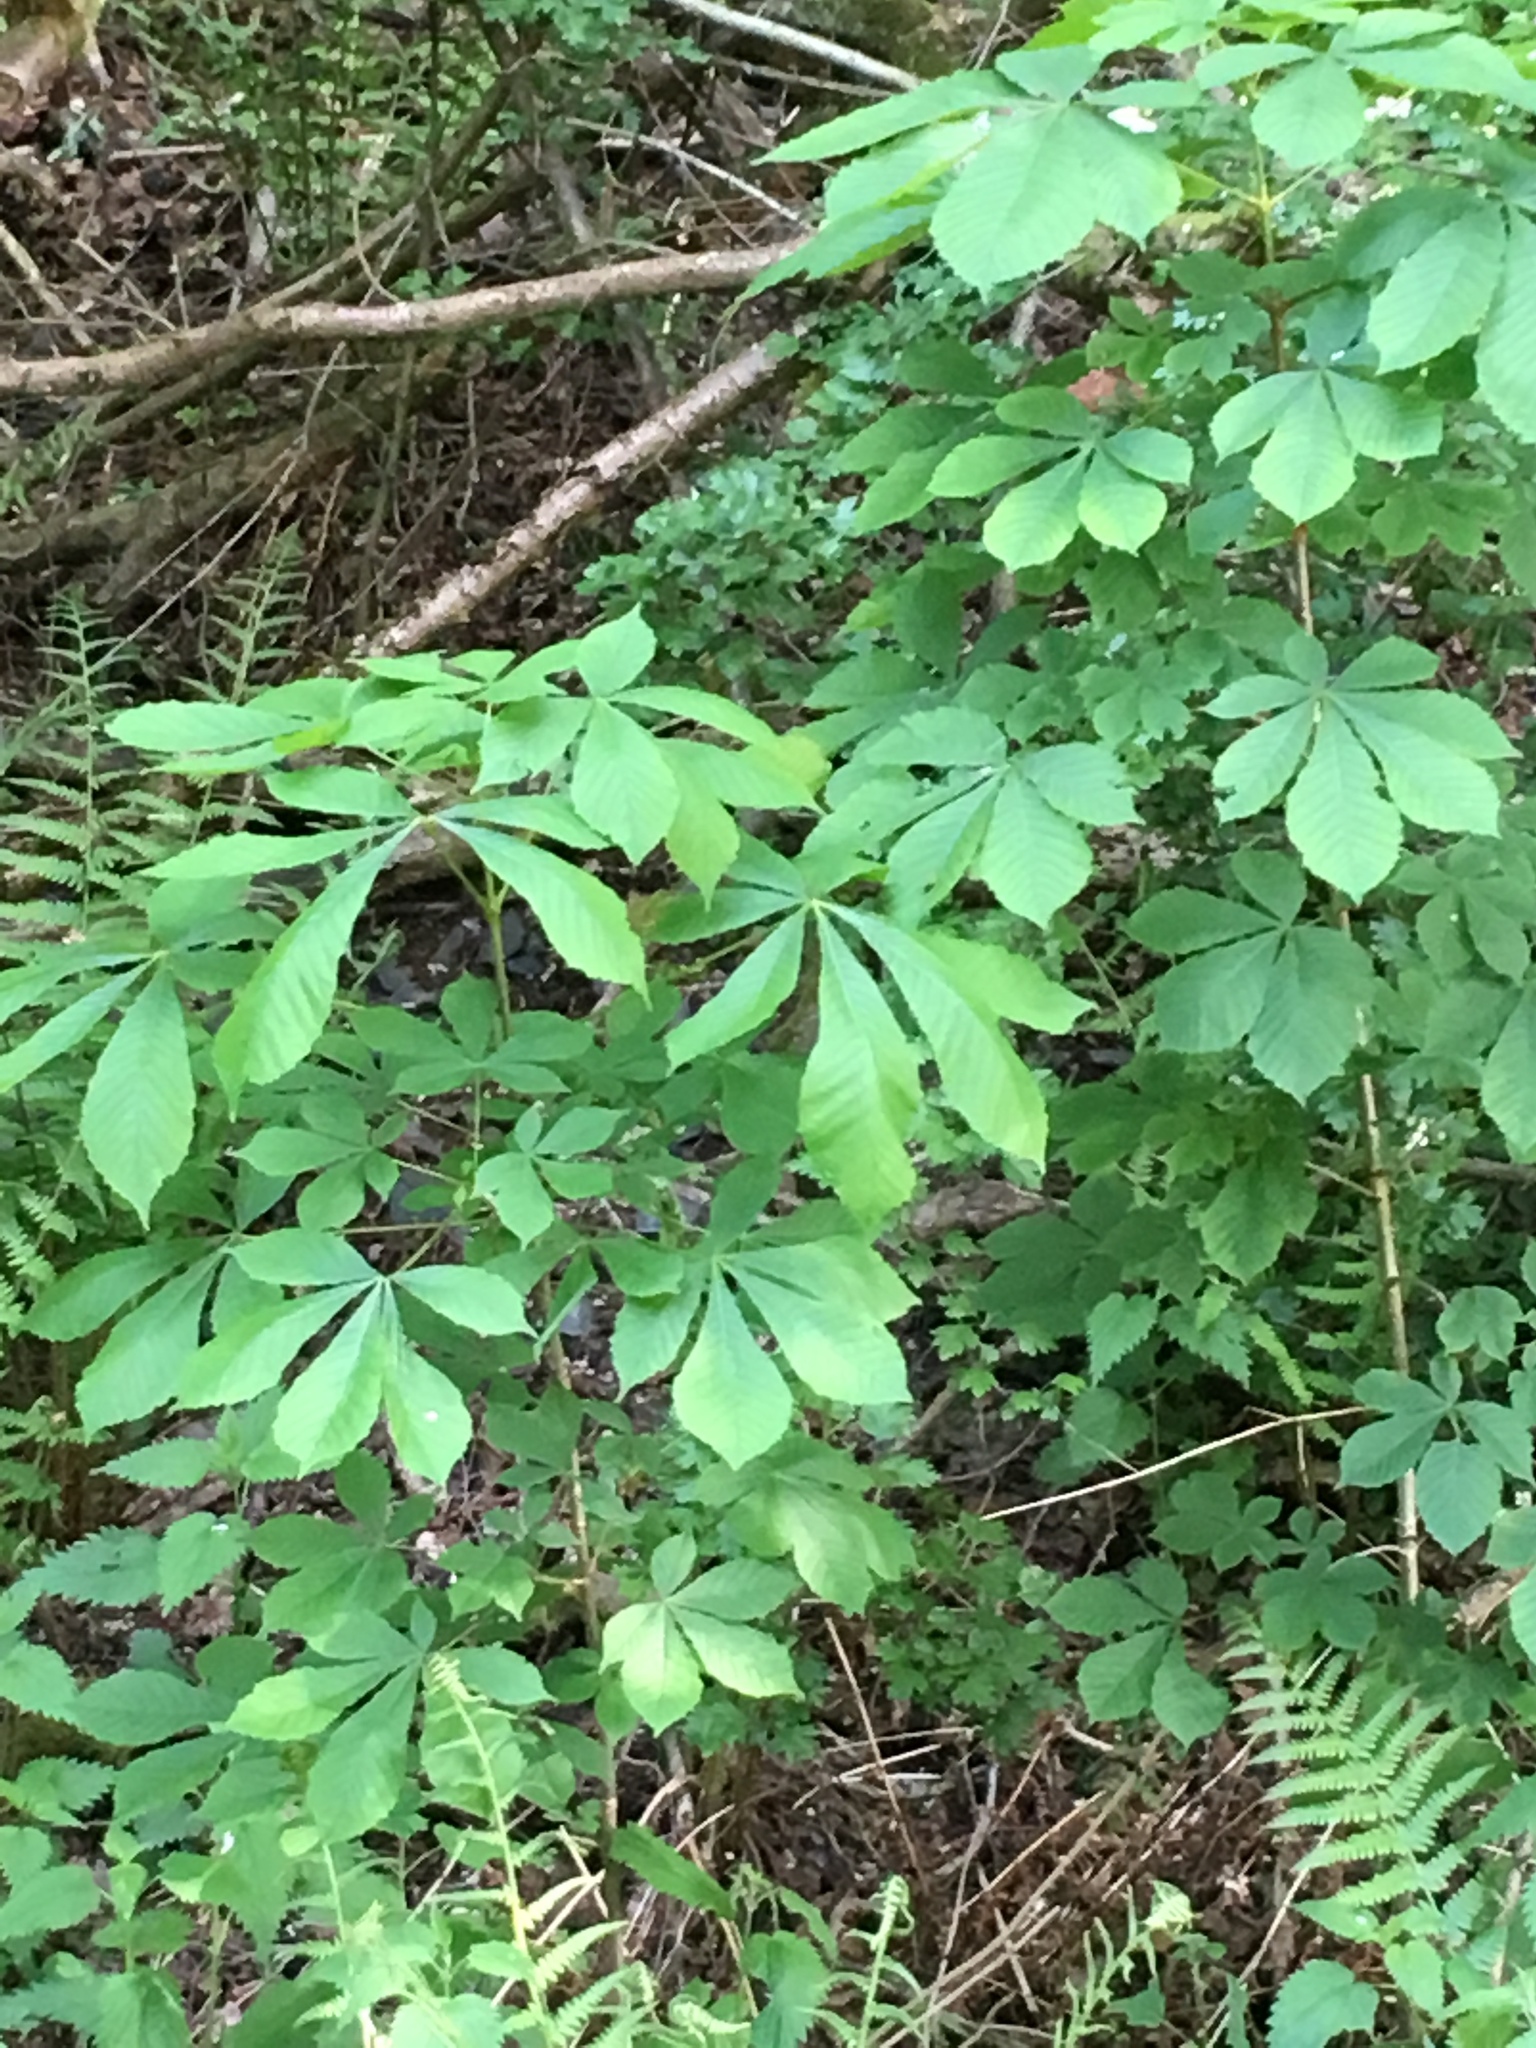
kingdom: Plantae
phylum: Tracheophyta
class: Magnoliopsida
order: Sapindales
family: Sapindaceae
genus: Aesculus
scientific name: Aesculus hippocastanum
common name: Horse-chestnut
